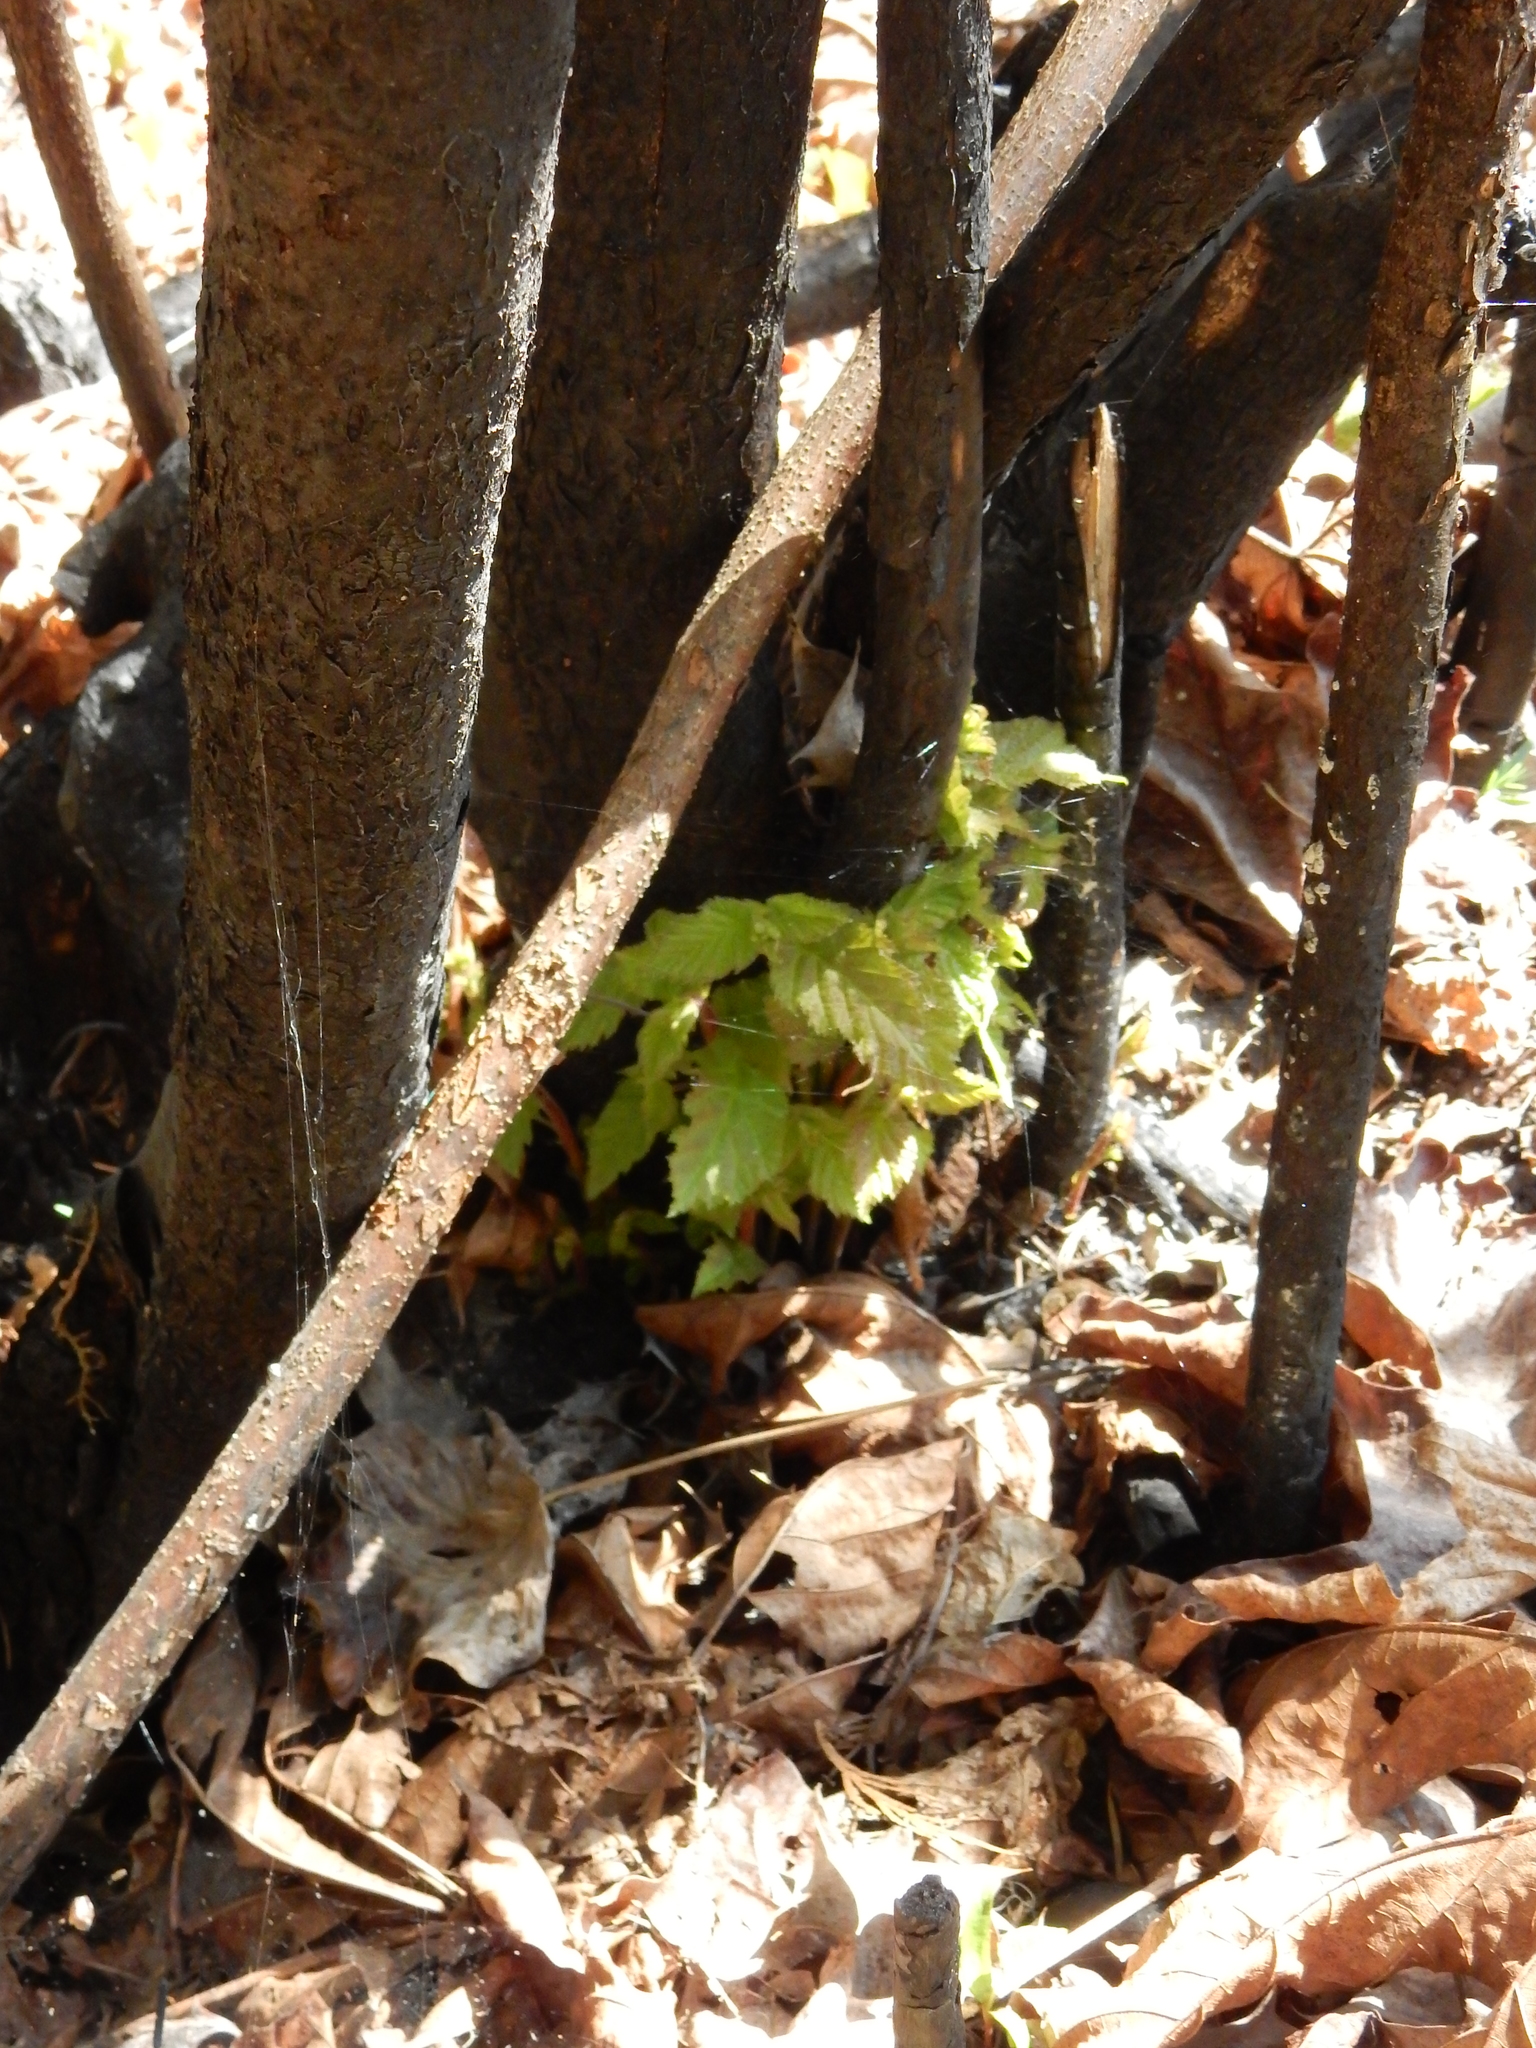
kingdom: Plantae
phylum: Tracheophyta
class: Magnoliopsida
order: Fagales
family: Betulaceae
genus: Corylus
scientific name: Corylus cornuta
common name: Beaked hazel
